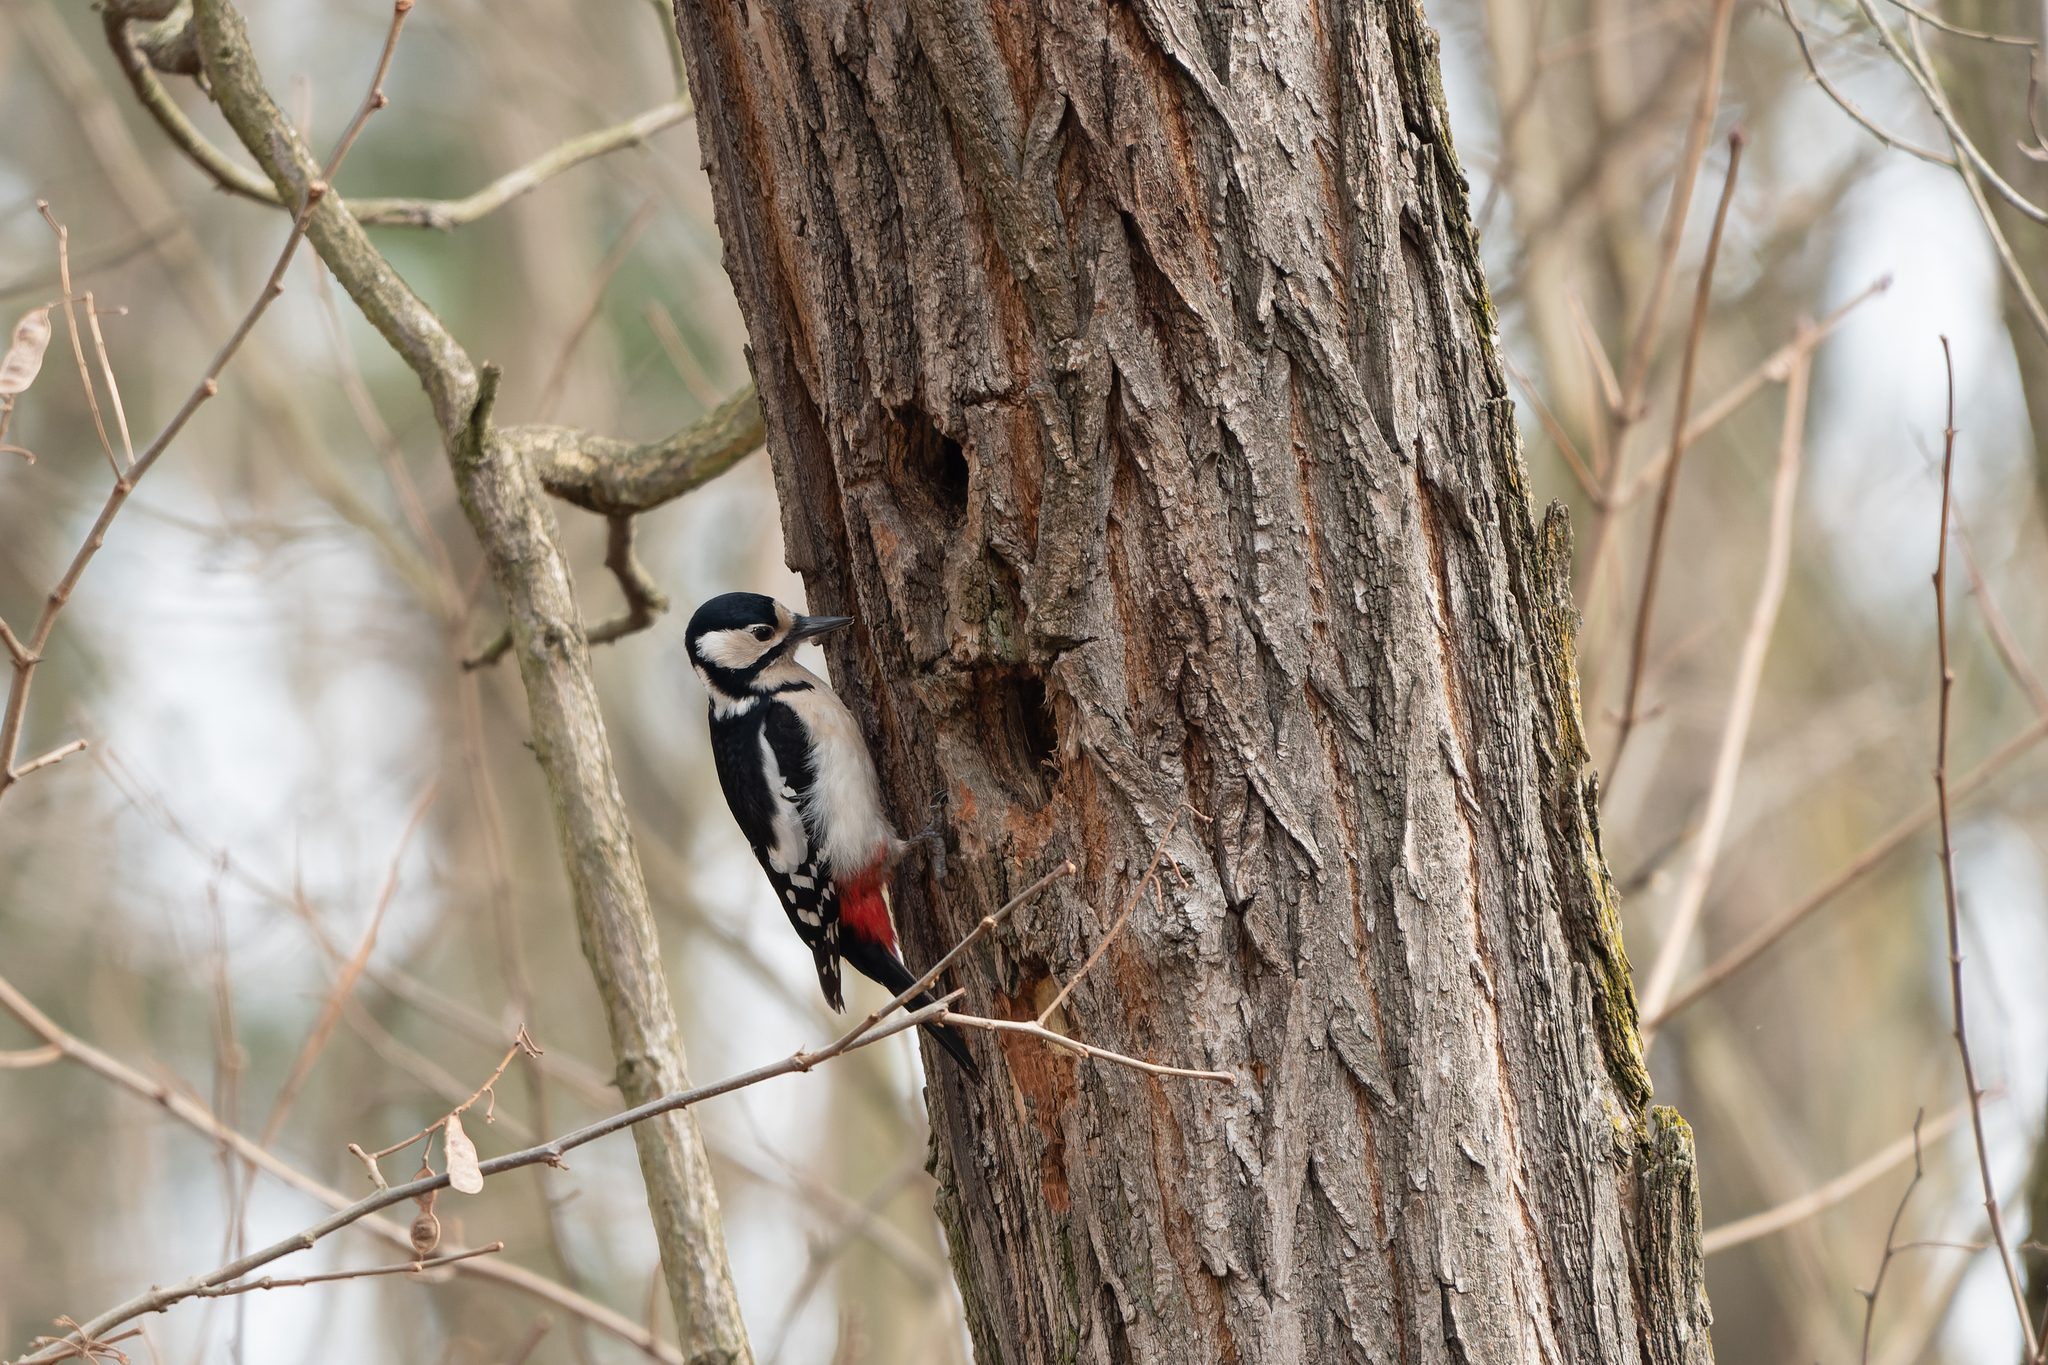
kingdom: Animalia
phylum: Chordata
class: Aves
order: Piciformes
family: Picidae
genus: Dendrocopos
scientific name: Dendrocopos major
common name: Great spotted woodpecker
